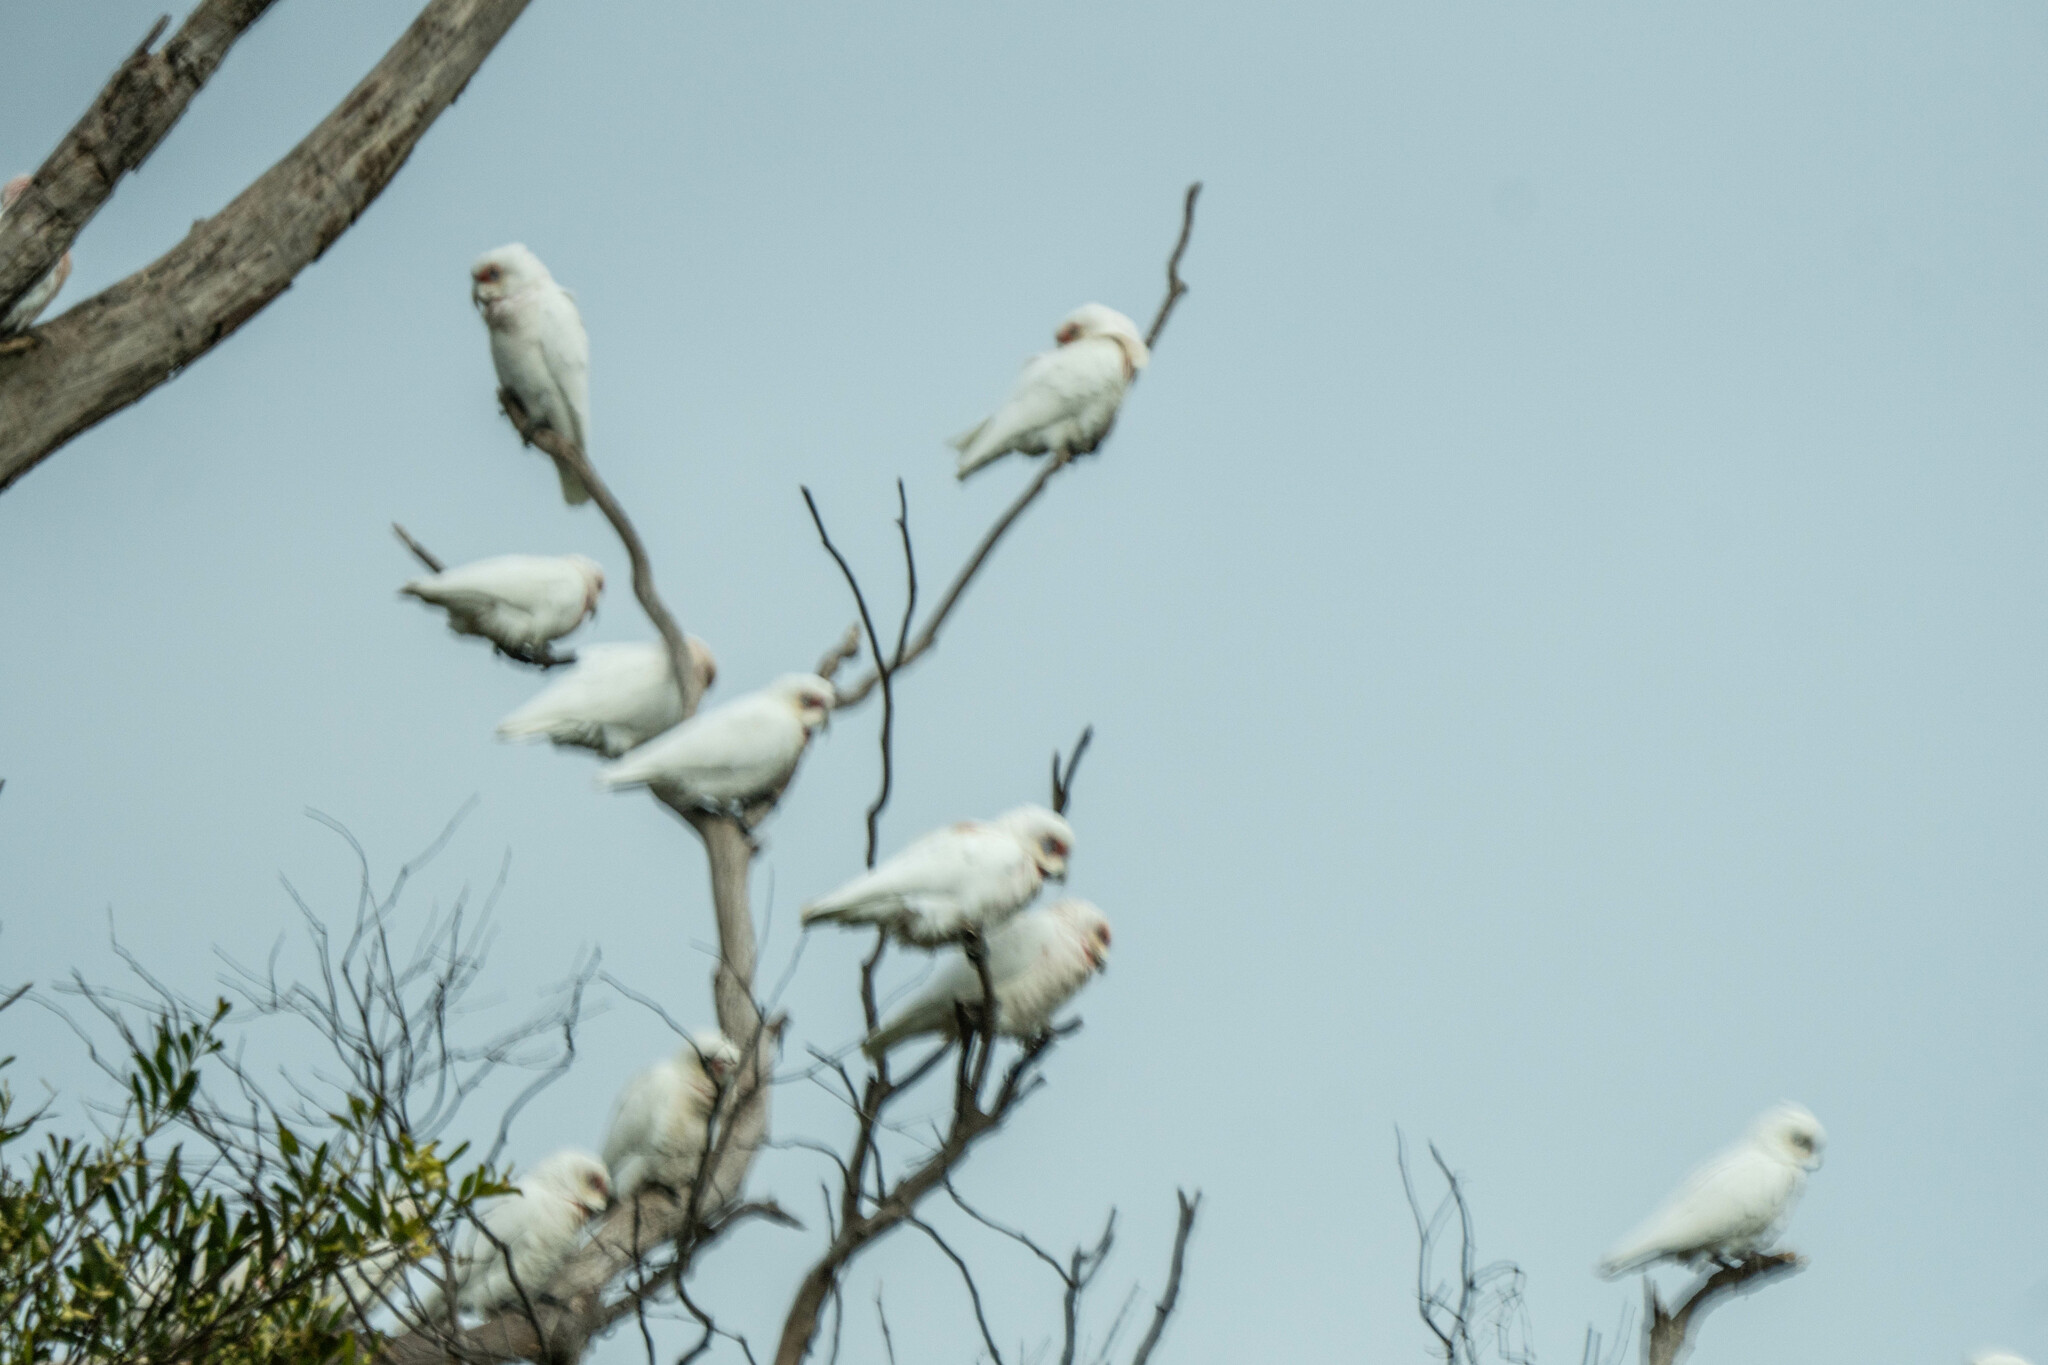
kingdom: Animalia
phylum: Chordata
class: Aves
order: Psittaciformes
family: Psittacidae
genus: Cacatua
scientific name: Cacatua tenuirostris
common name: Long-billed corella
